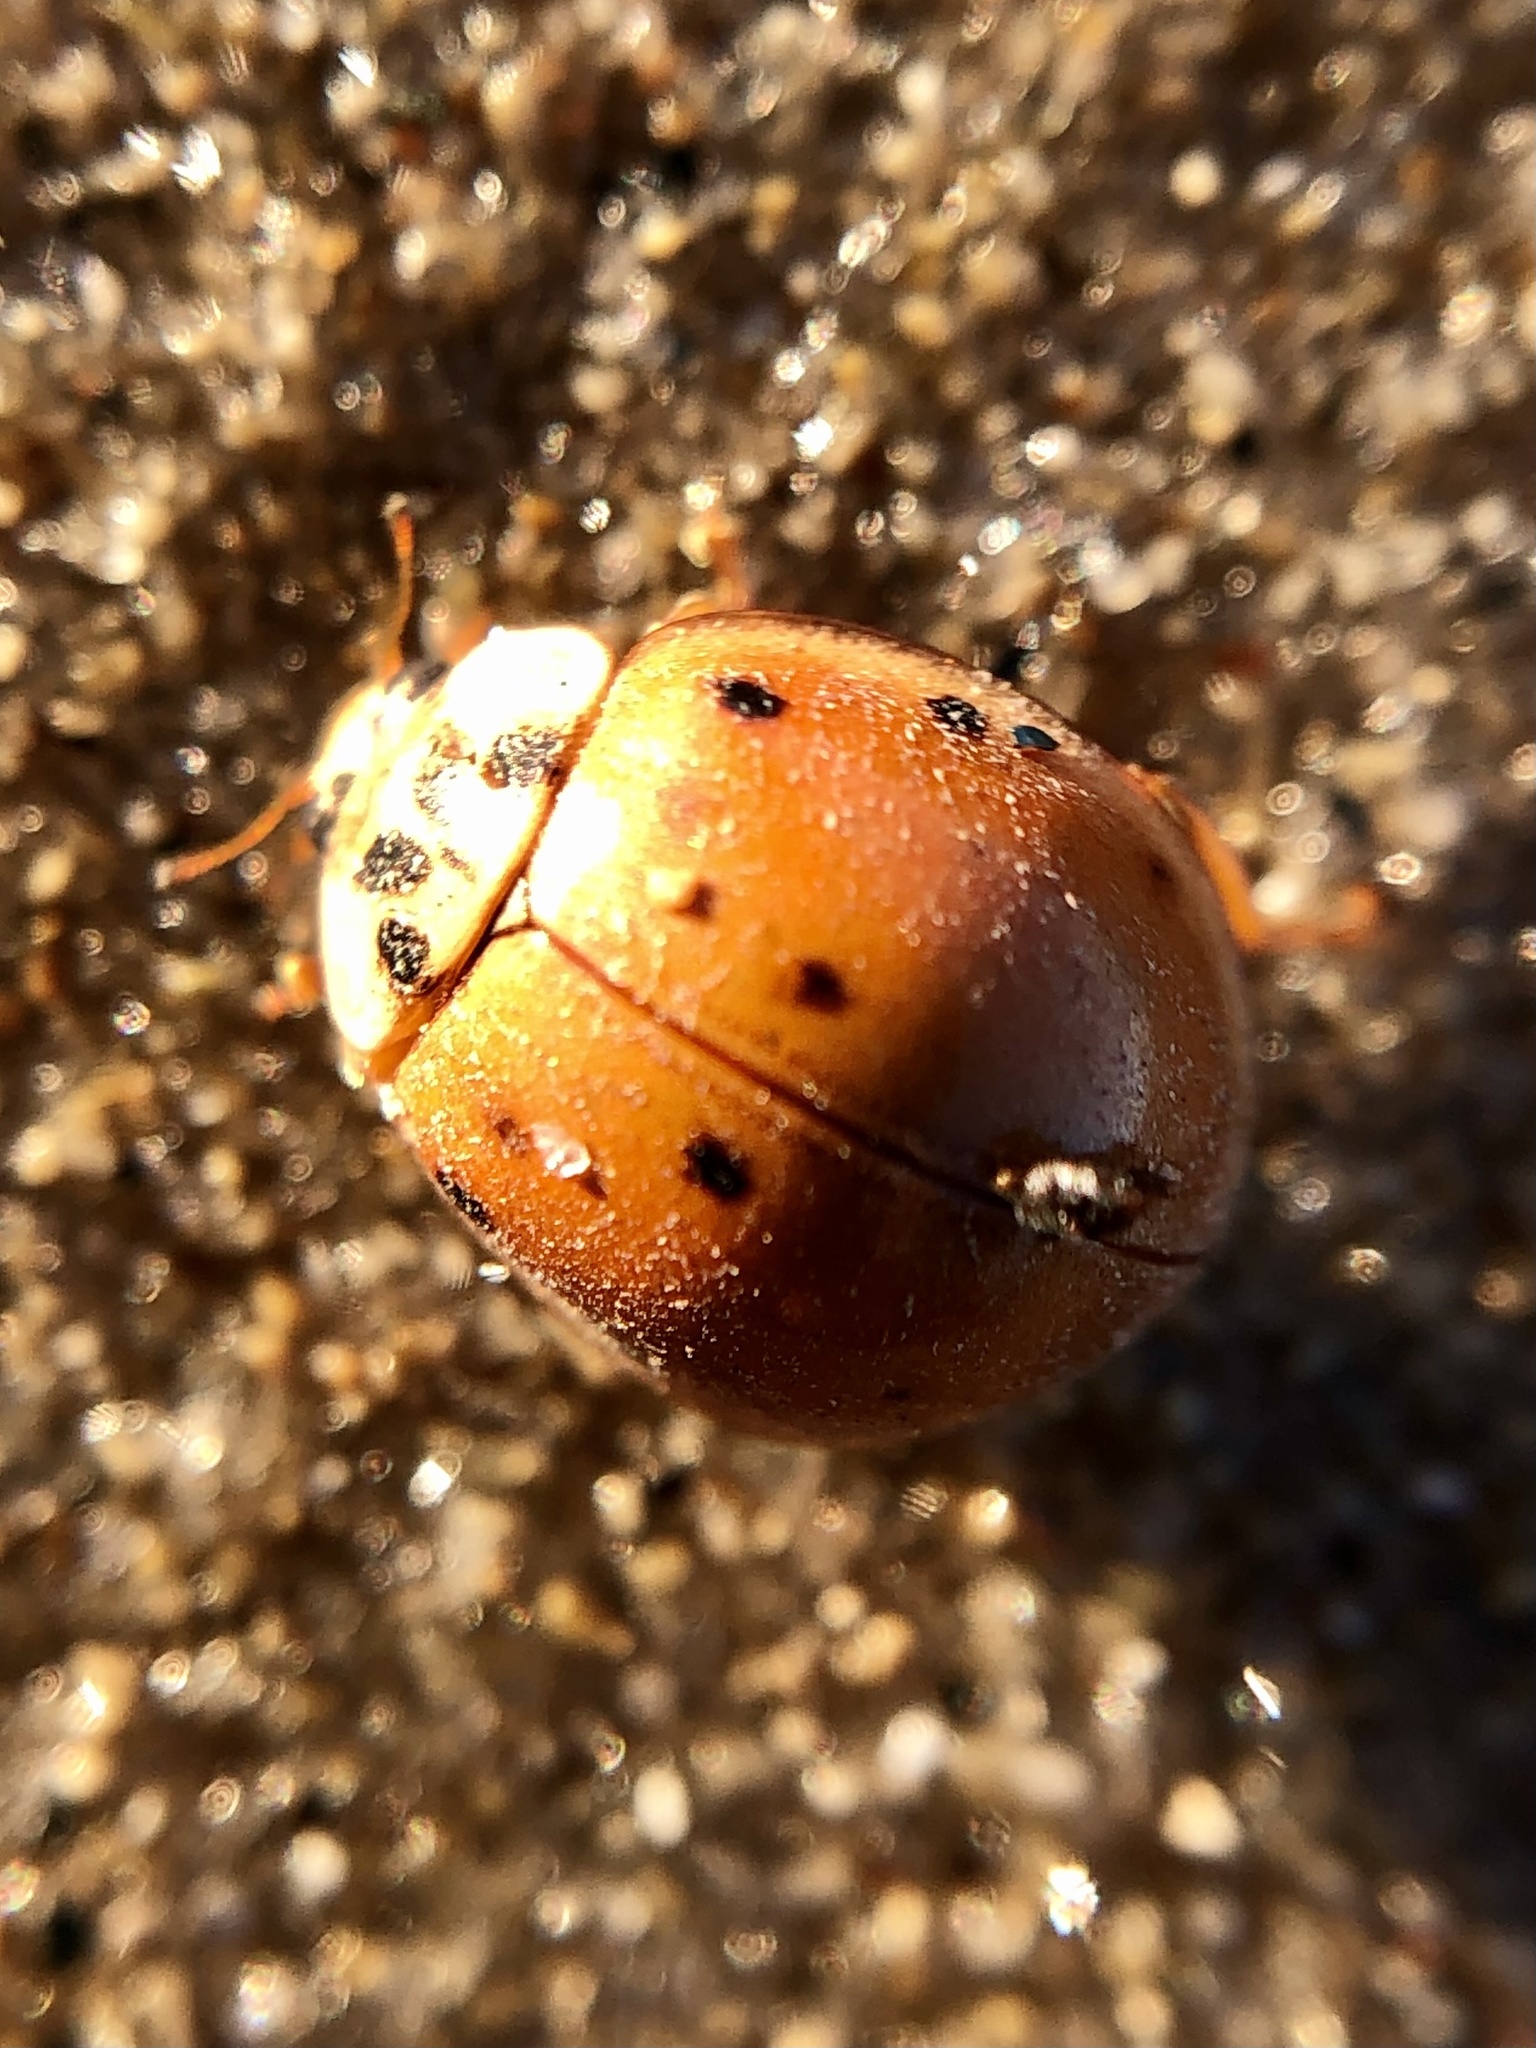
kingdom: Animalia
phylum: Arthropoda
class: Insecta
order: Coleoptera
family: Coccinellidae
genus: Harmonia
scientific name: Harmonia axyridis
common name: Harlequin ladybird
